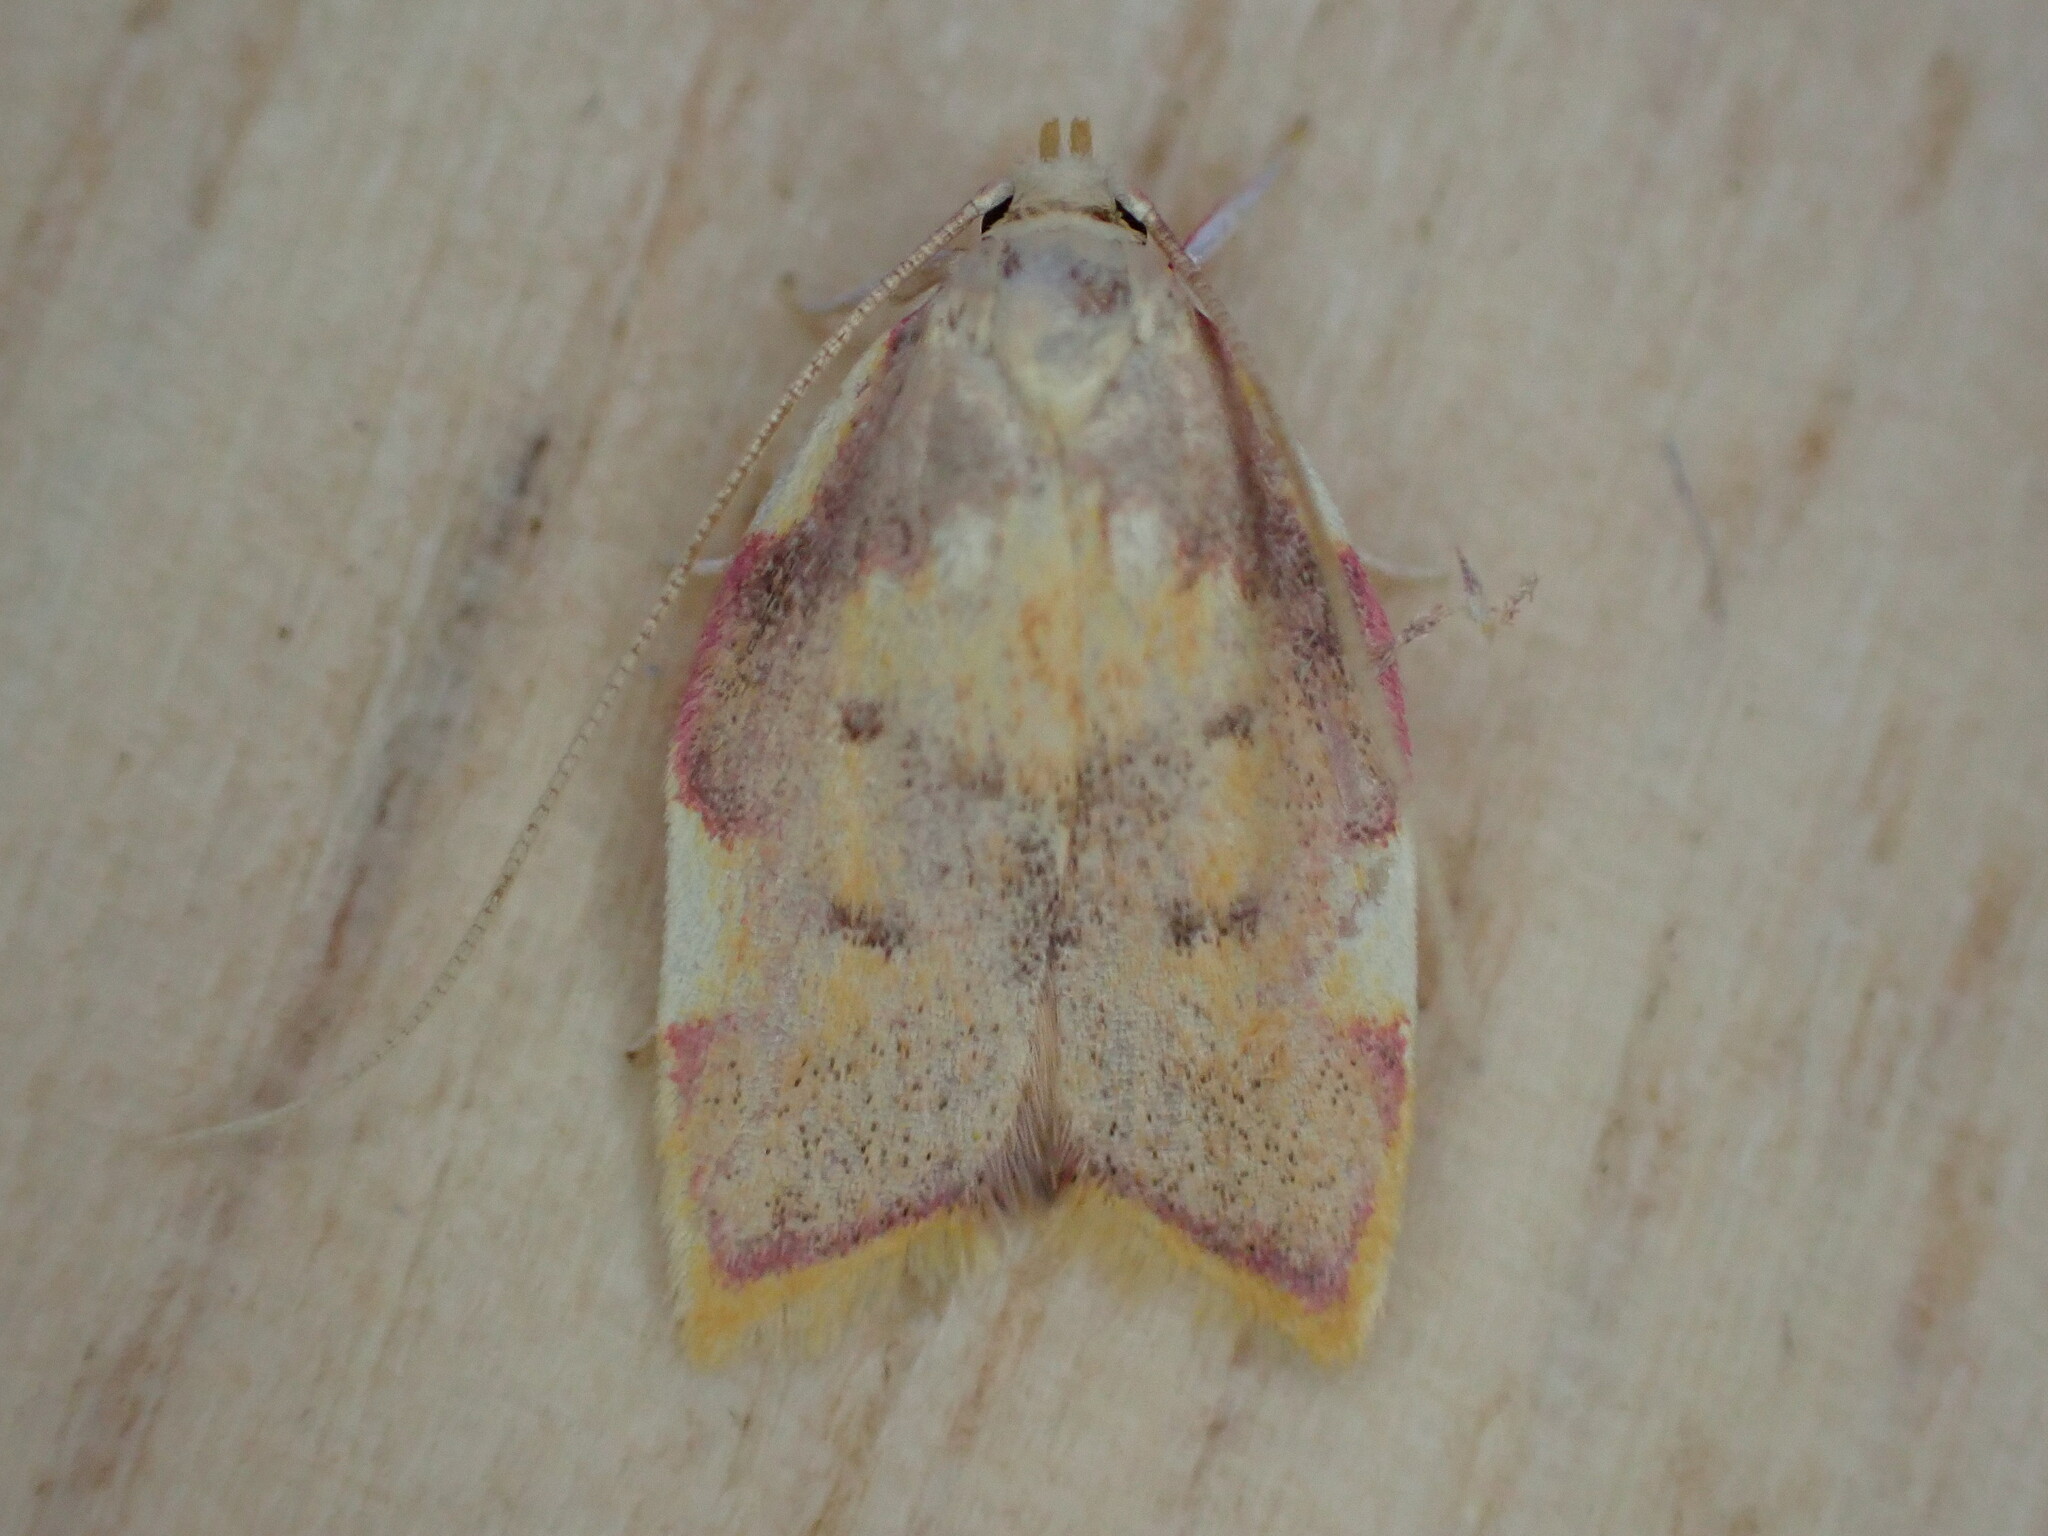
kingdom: Animalia
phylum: Arthropoda
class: Insecta
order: Lepidoptera
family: Peleopodidae
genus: Carcina
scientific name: Carcina quercana
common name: Moth
